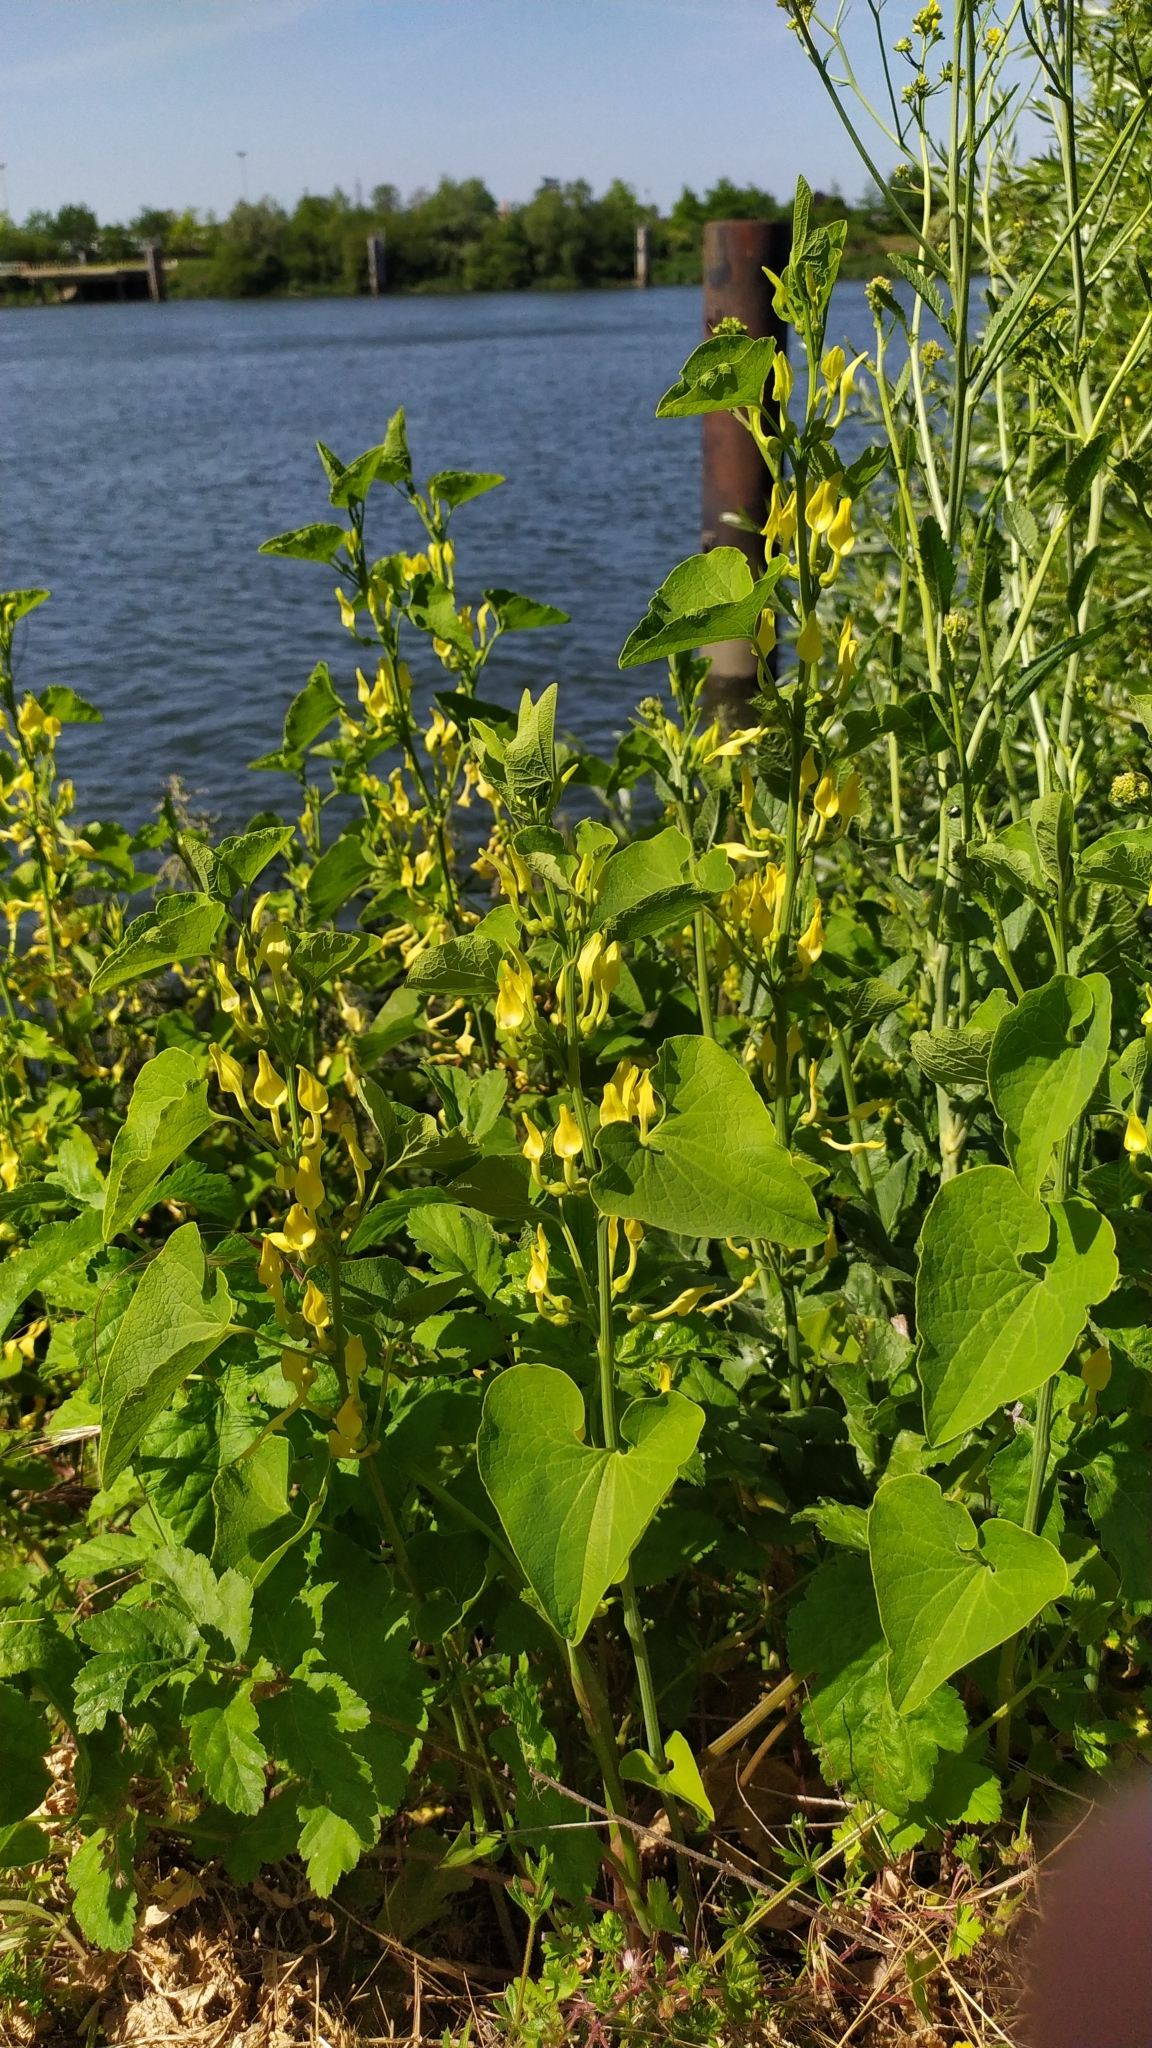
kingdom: Plantae
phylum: Tracheophyta
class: Magnoliopsida
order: Piperales
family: Aristolochiaceae
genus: Aristolochia
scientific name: Aristolochia clematitis
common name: Birthwort
